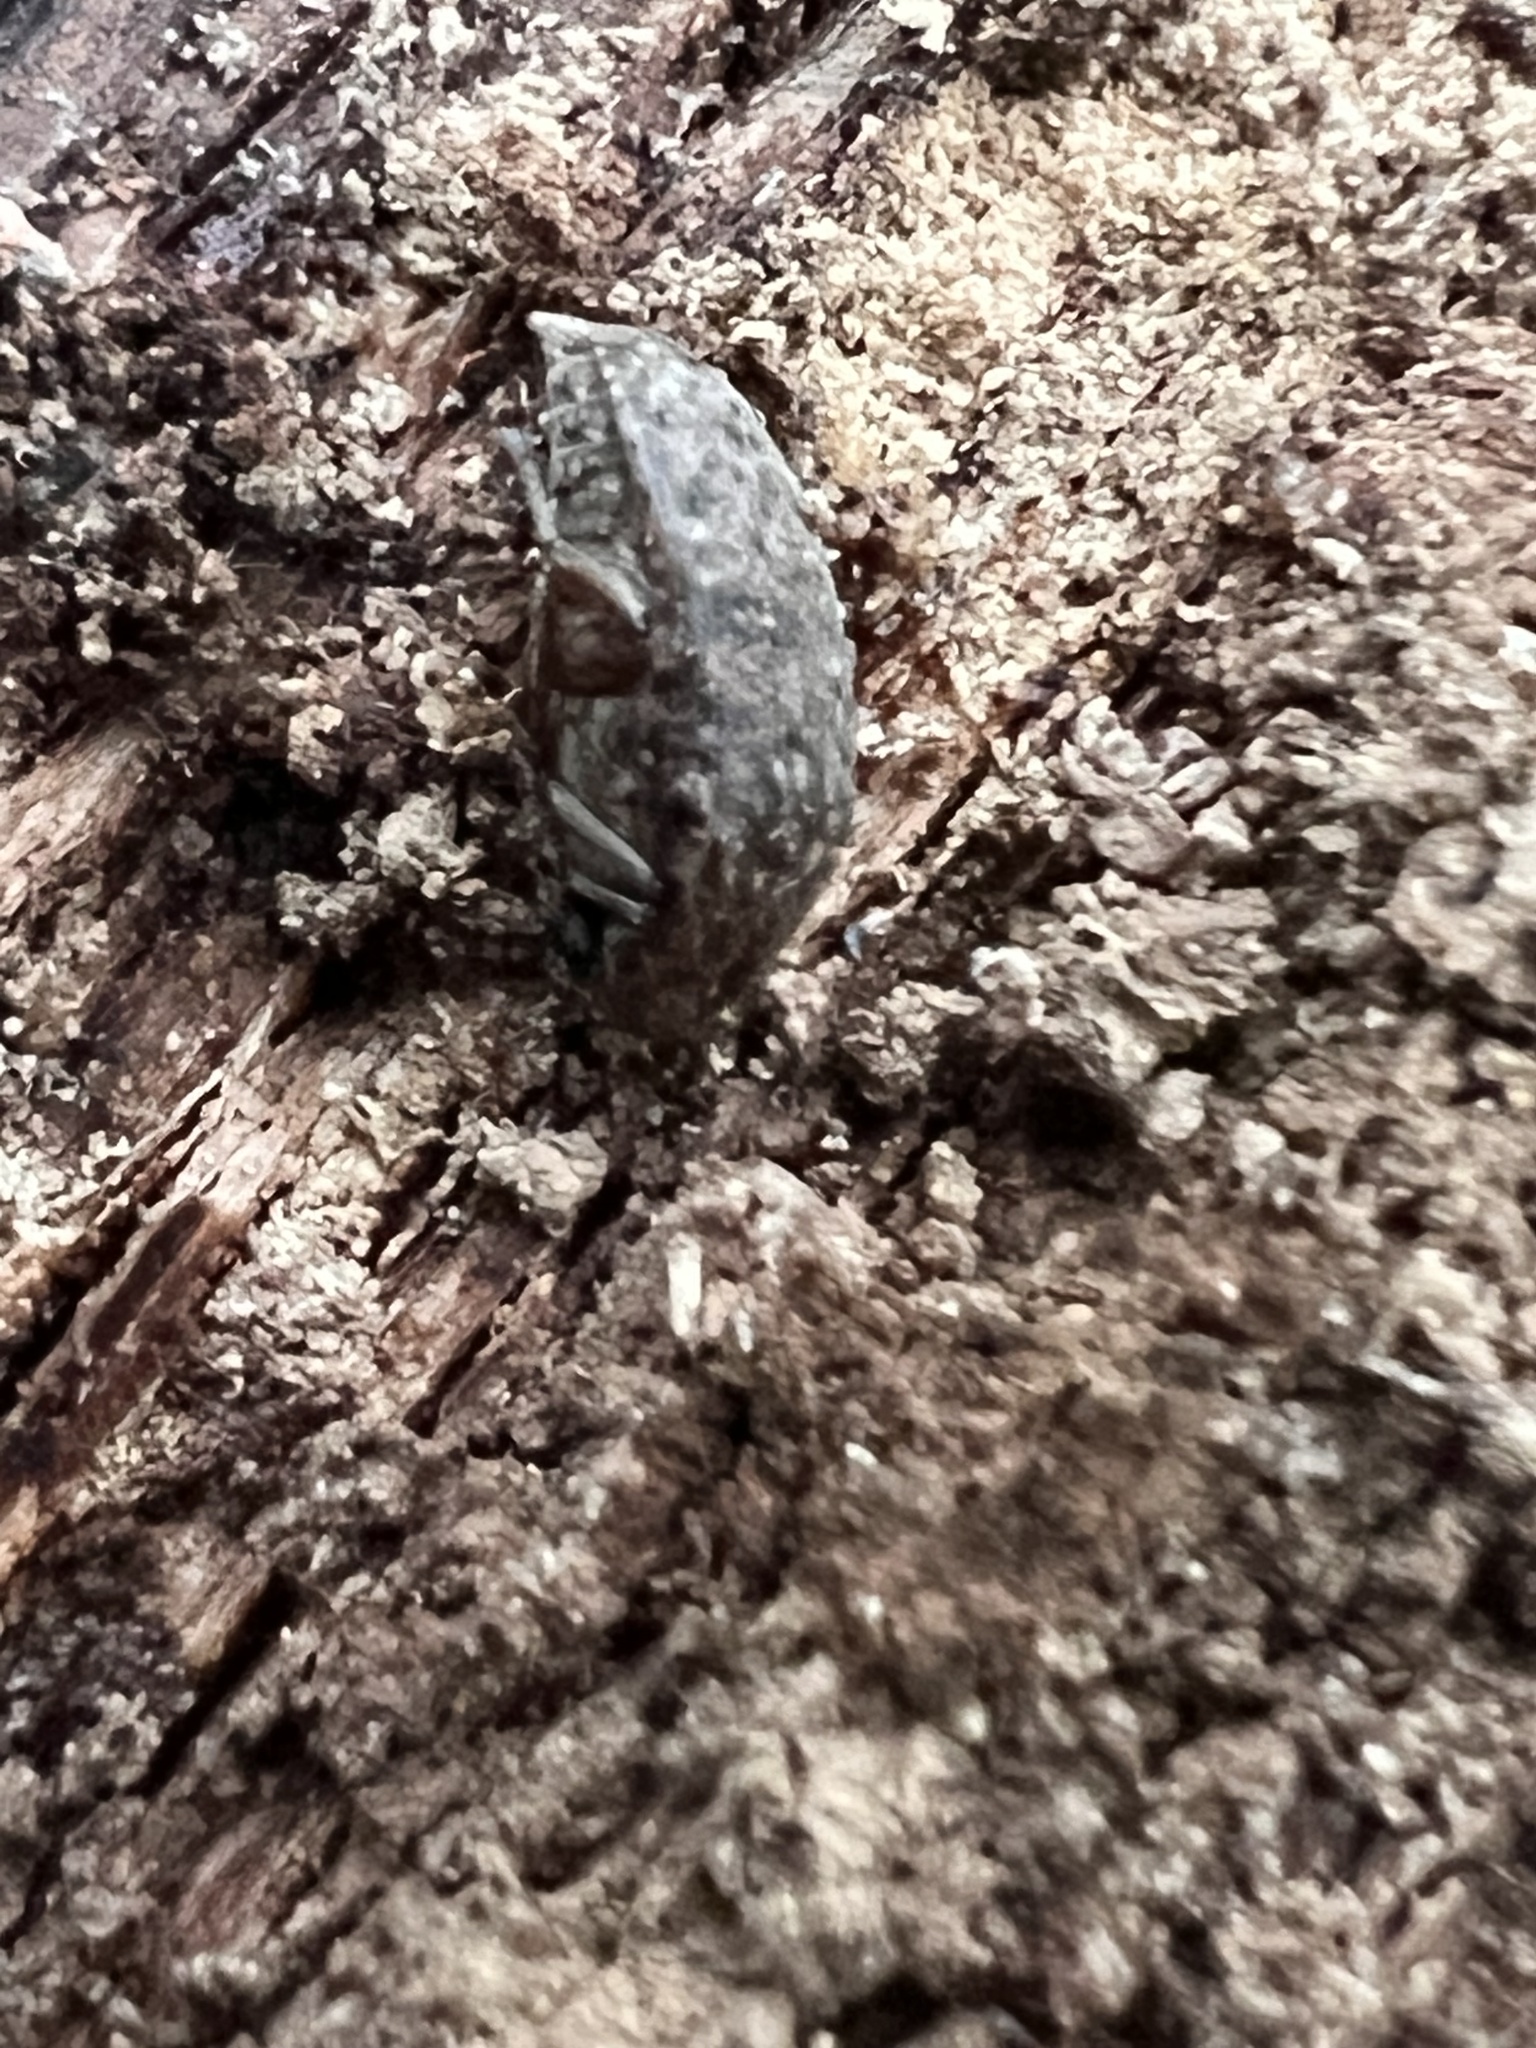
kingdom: Animalia
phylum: Arthropoda
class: Insecta
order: Coleoptera
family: Chrysomelidae
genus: Amblycerus
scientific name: Amblycerus robiniae
